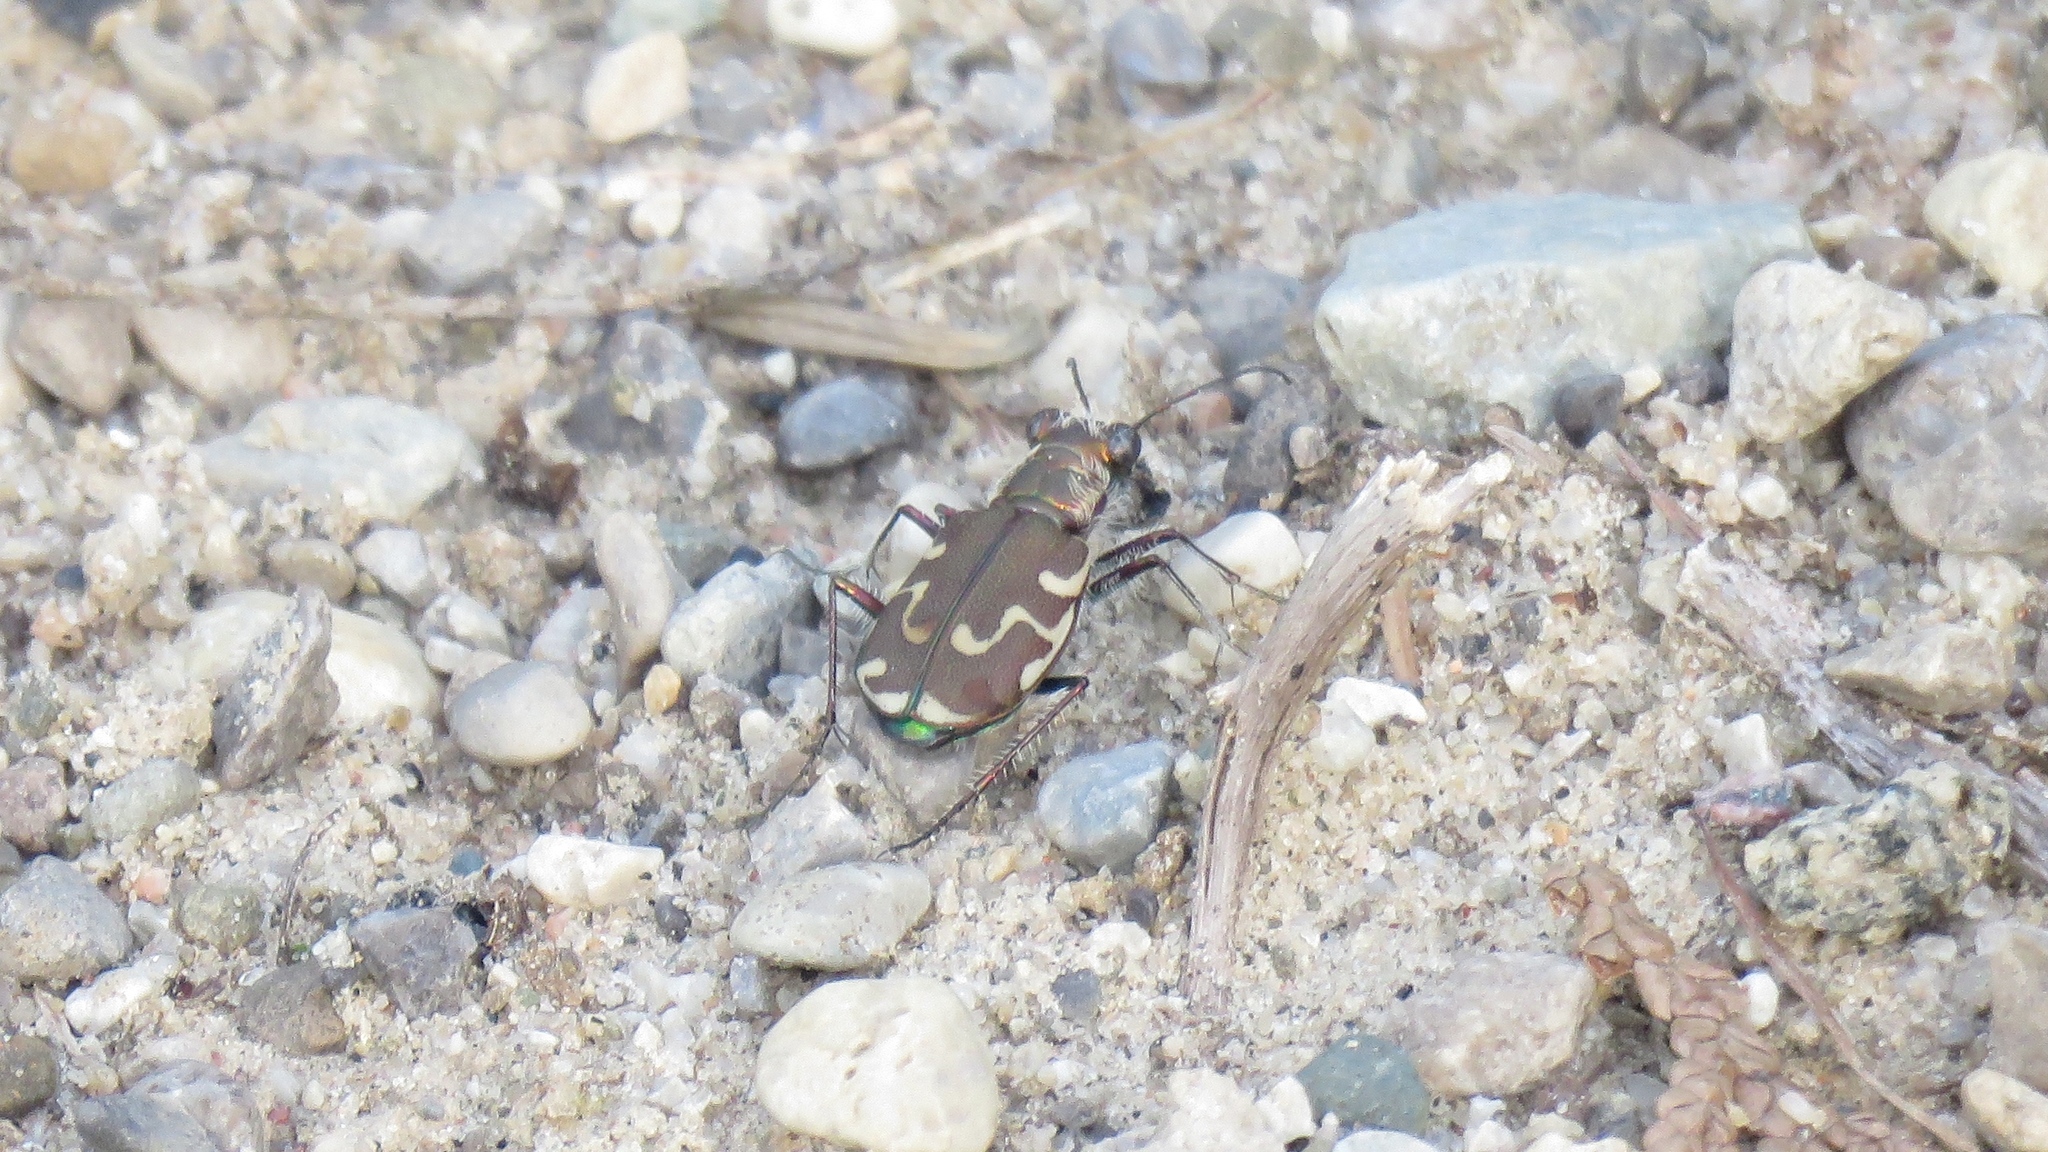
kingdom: Animalia
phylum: Arthropoda
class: Insecta
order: Coleoptera
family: Carabidae
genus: Cicindela
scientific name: Cicindela repanda
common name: Bronzed tiger beetle
